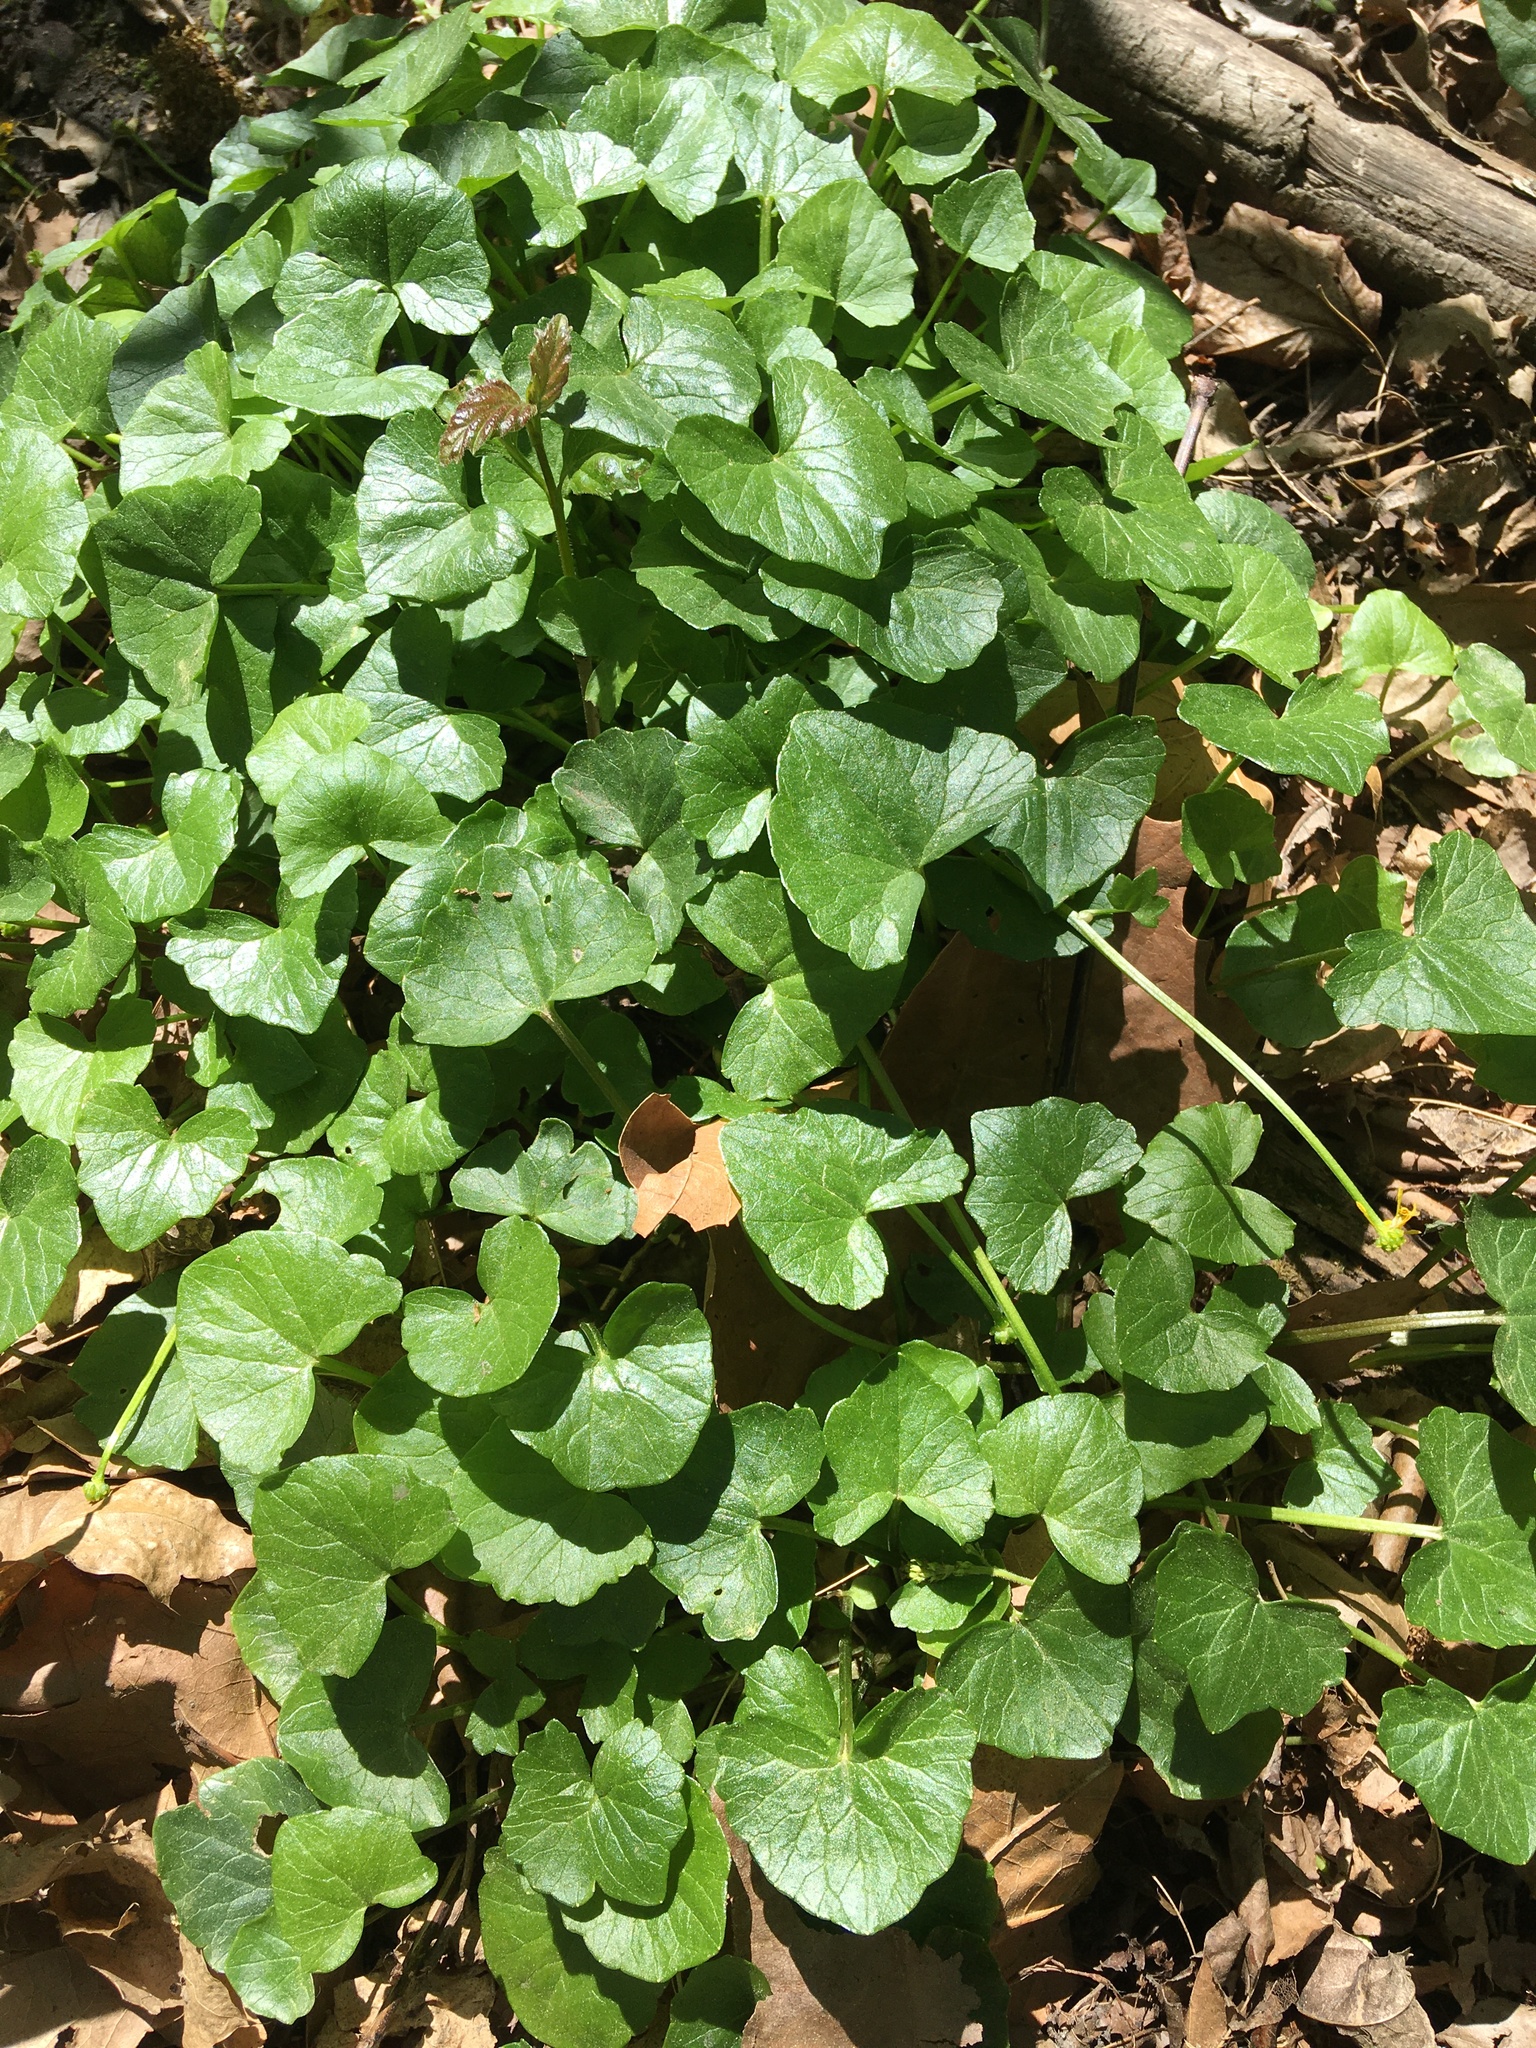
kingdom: Plantae
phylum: Tracheophyta
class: Magnoliopsida
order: Ranunculales
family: Ranunculaceae
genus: Ficaria
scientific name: Ficaria verna
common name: Lesser celandine
